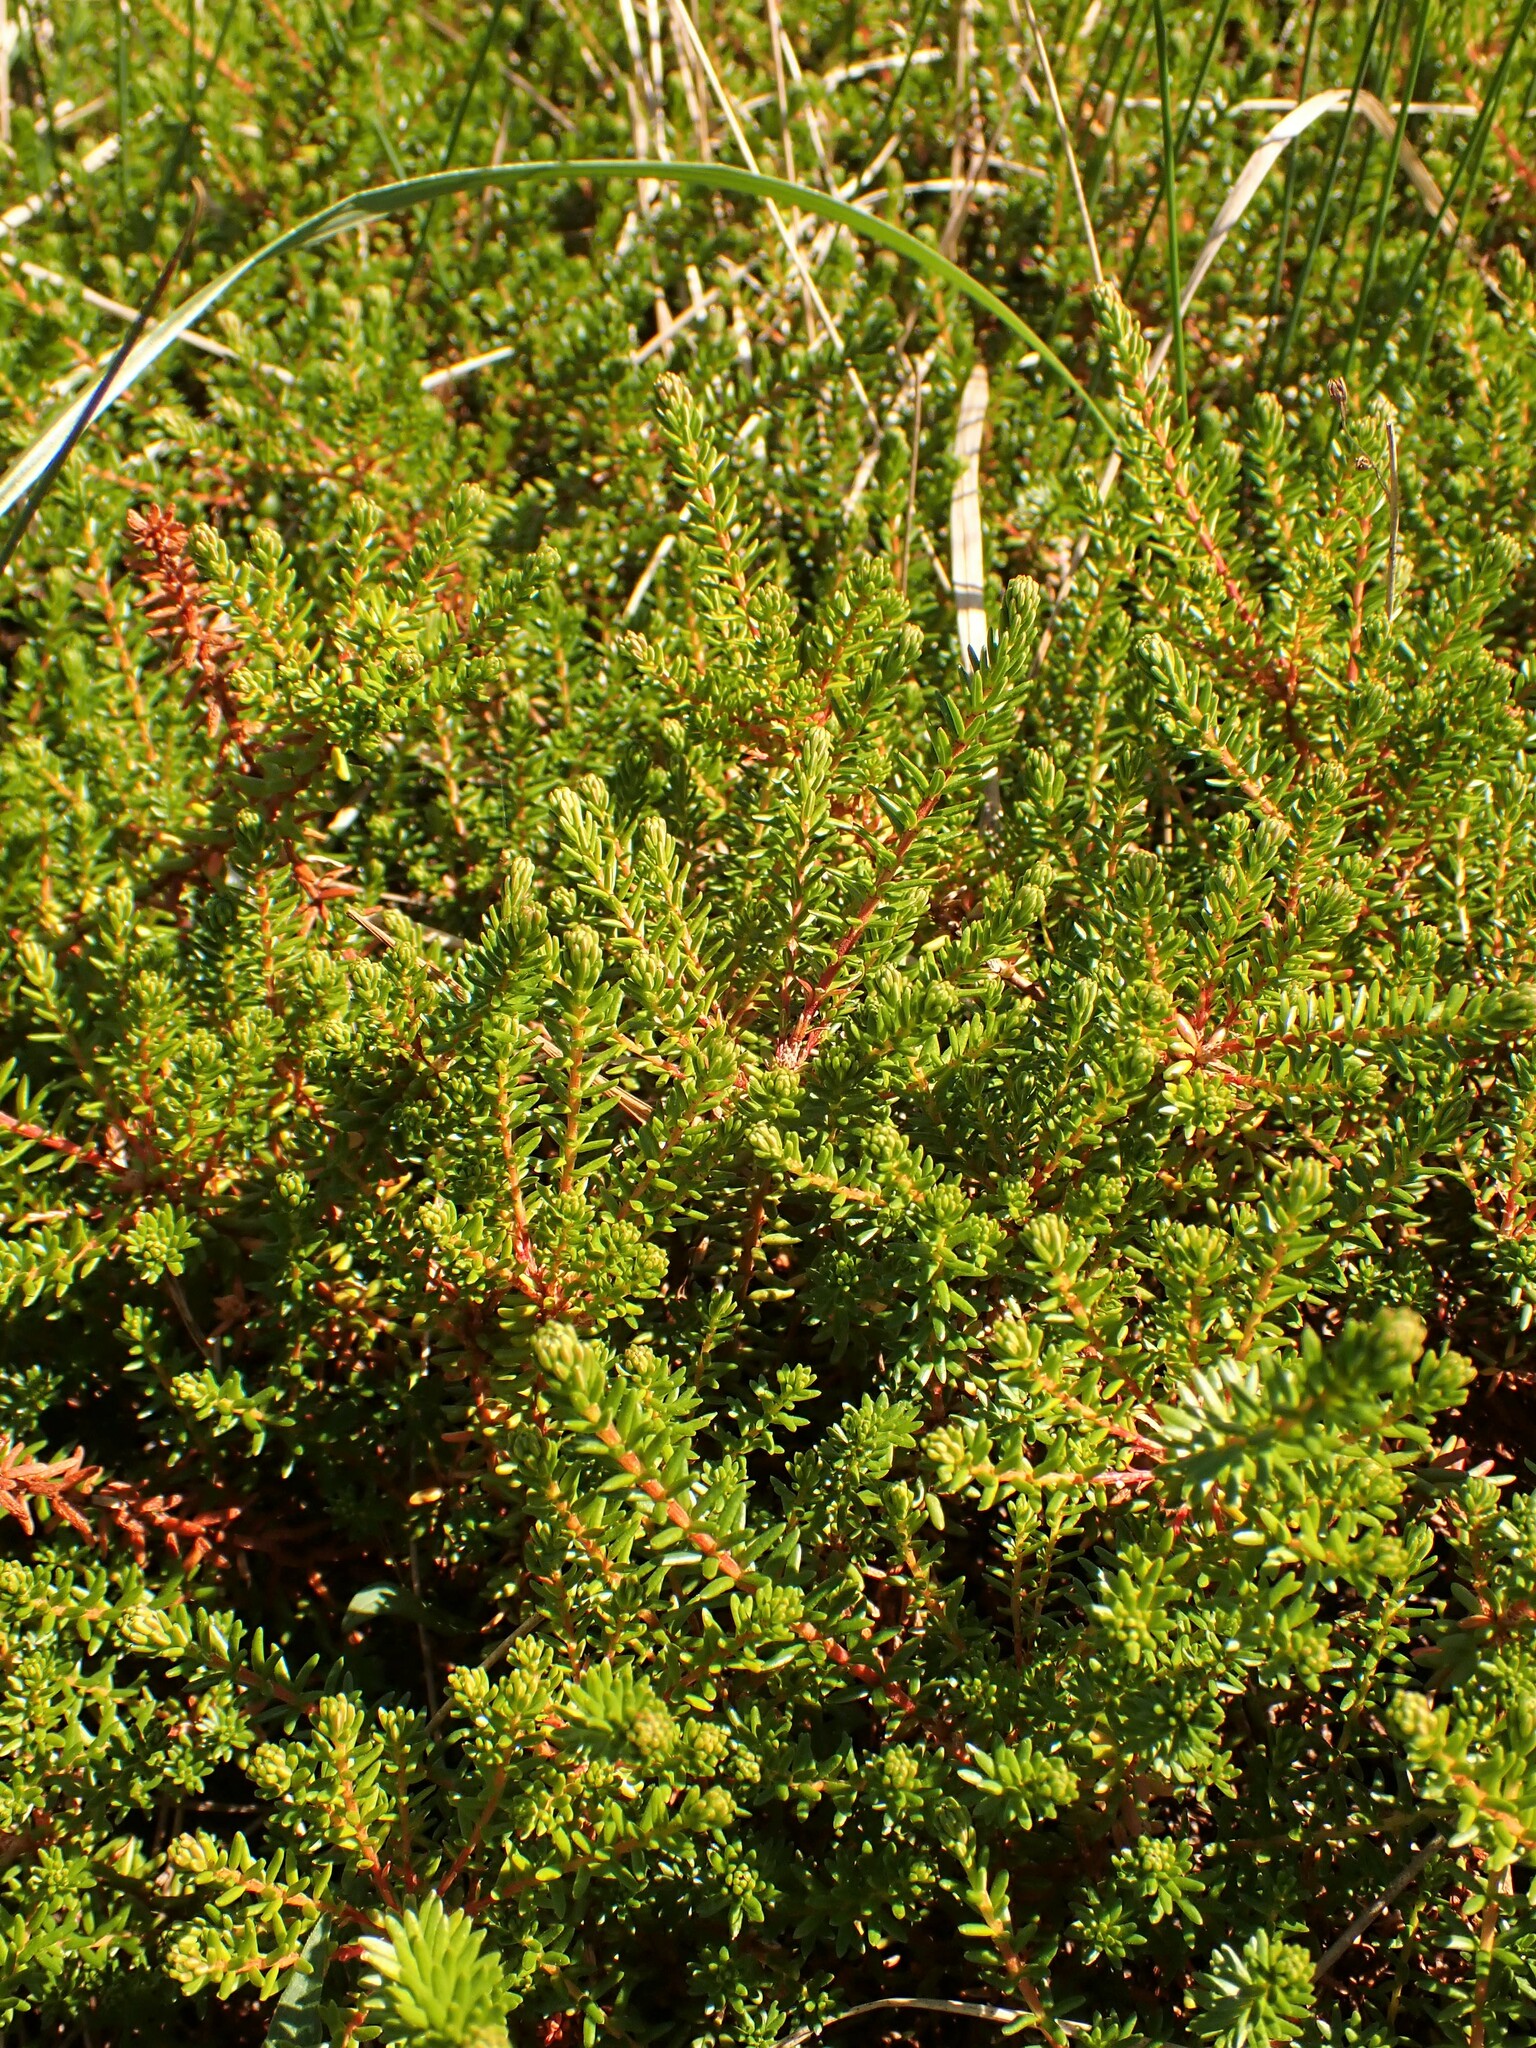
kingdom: Plantae
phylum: Tracheophyta
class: Magnoliopsida
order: Ericales
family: Ericaceae
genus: Empetrum
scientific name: Empetrum nigrum
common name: Black crowberry
